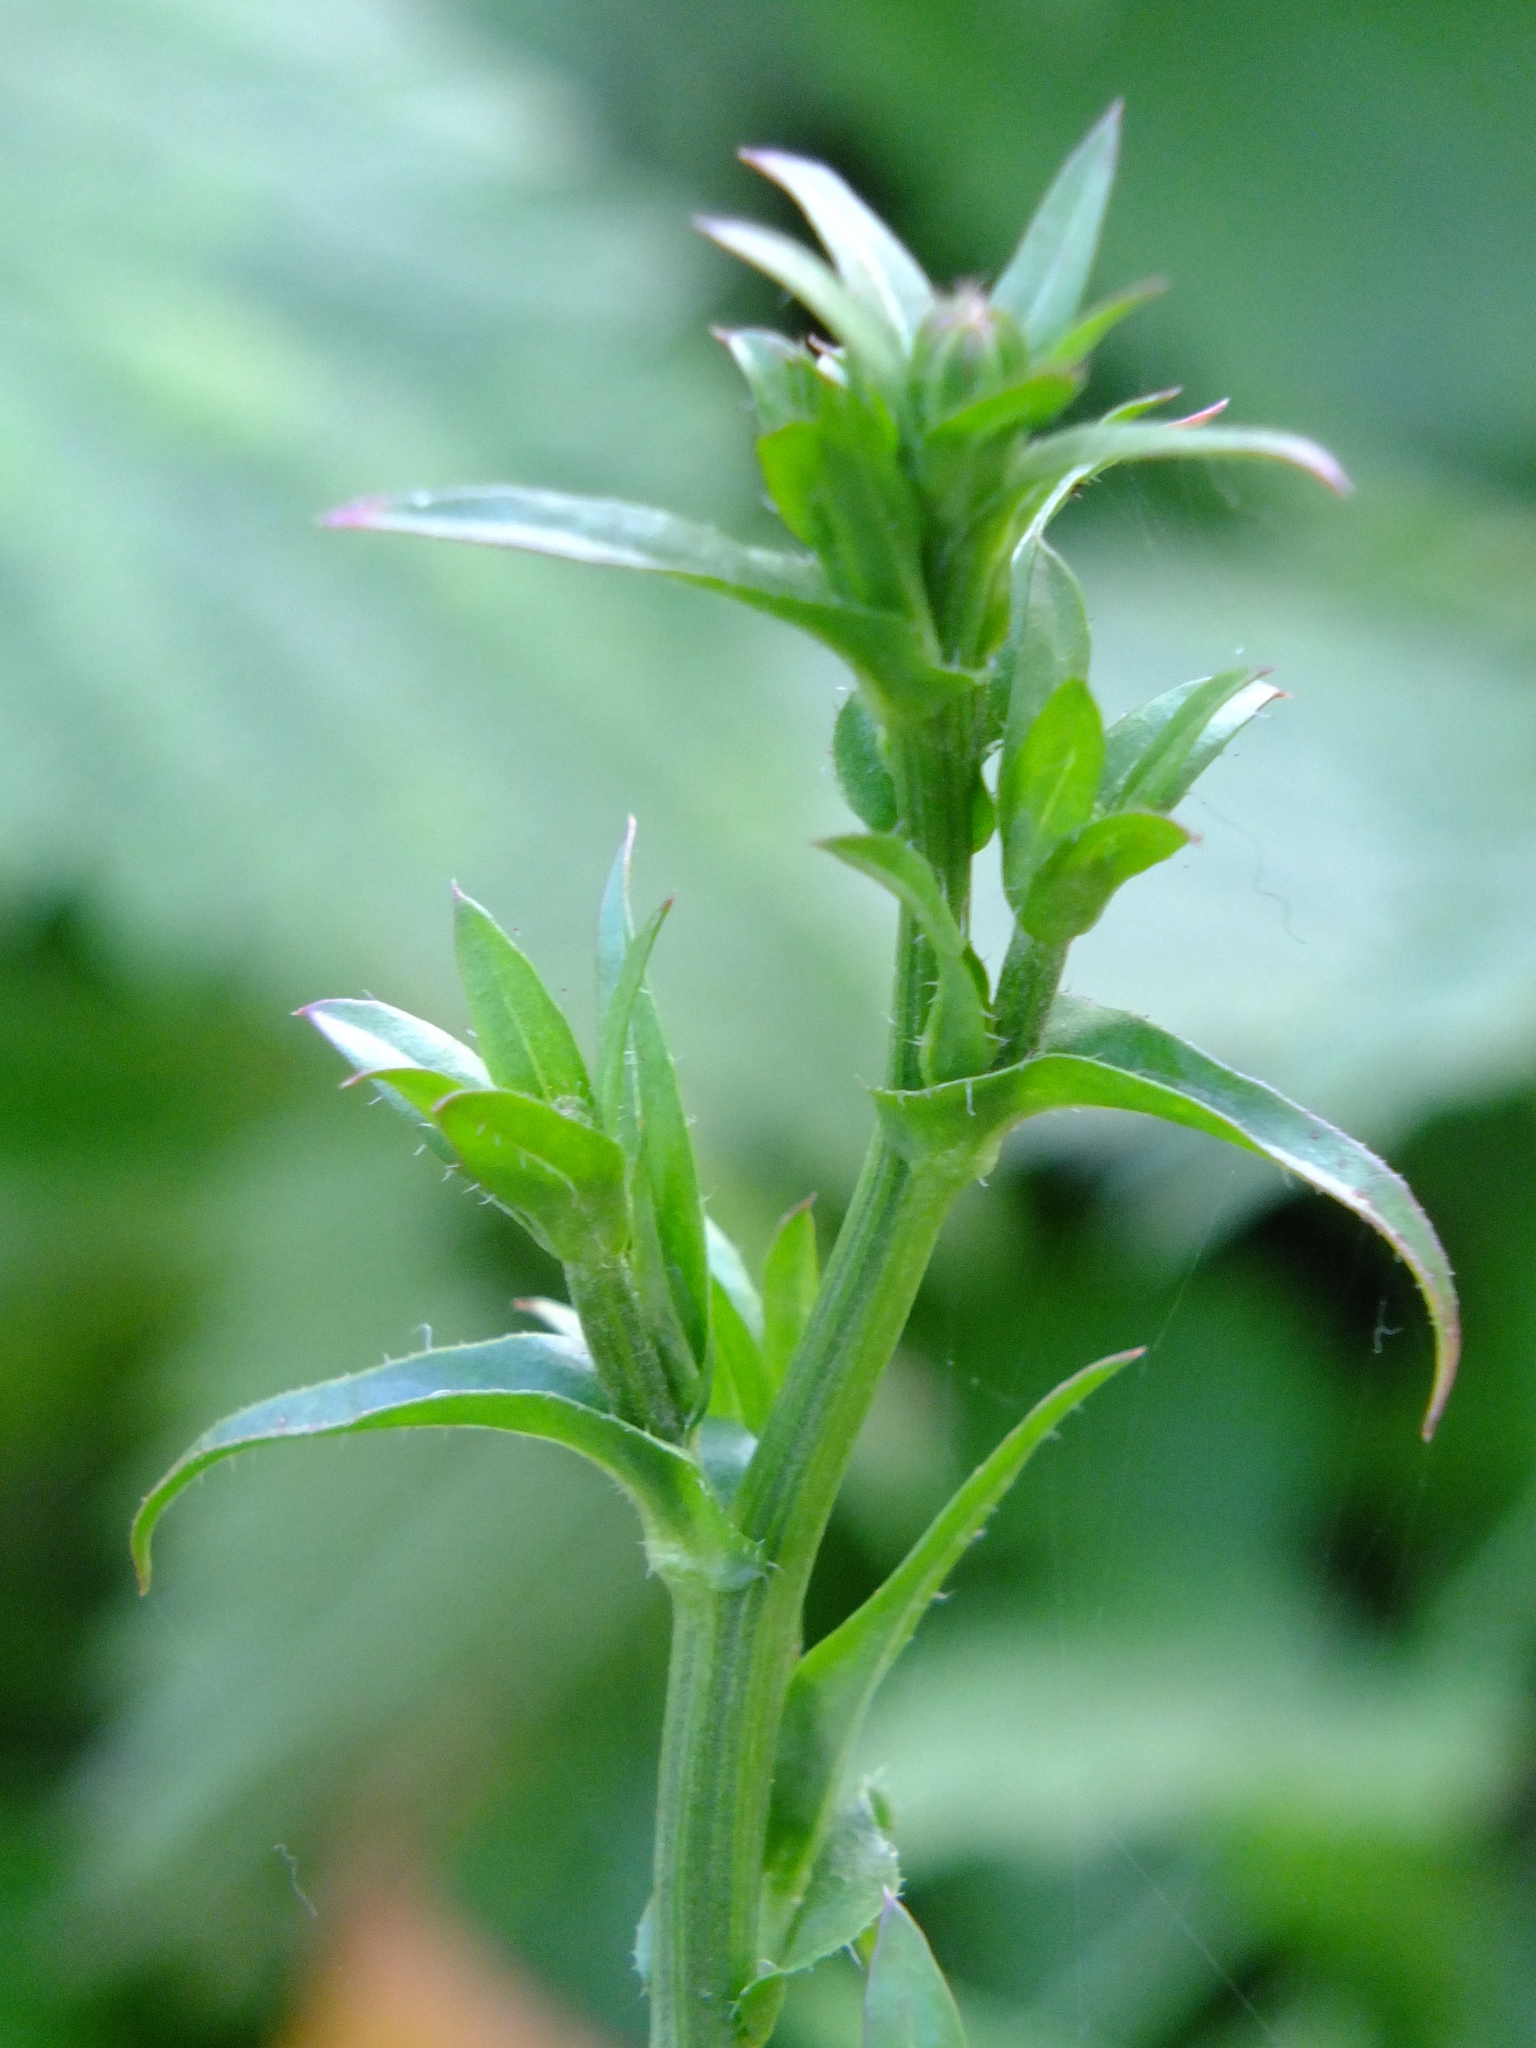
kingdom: Plantae
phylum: Tracheophyta
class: Magnoliopsida
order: Asterales
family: Asteraceae
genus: Cichorium
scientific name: Cichorium intybus
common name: Chicory
